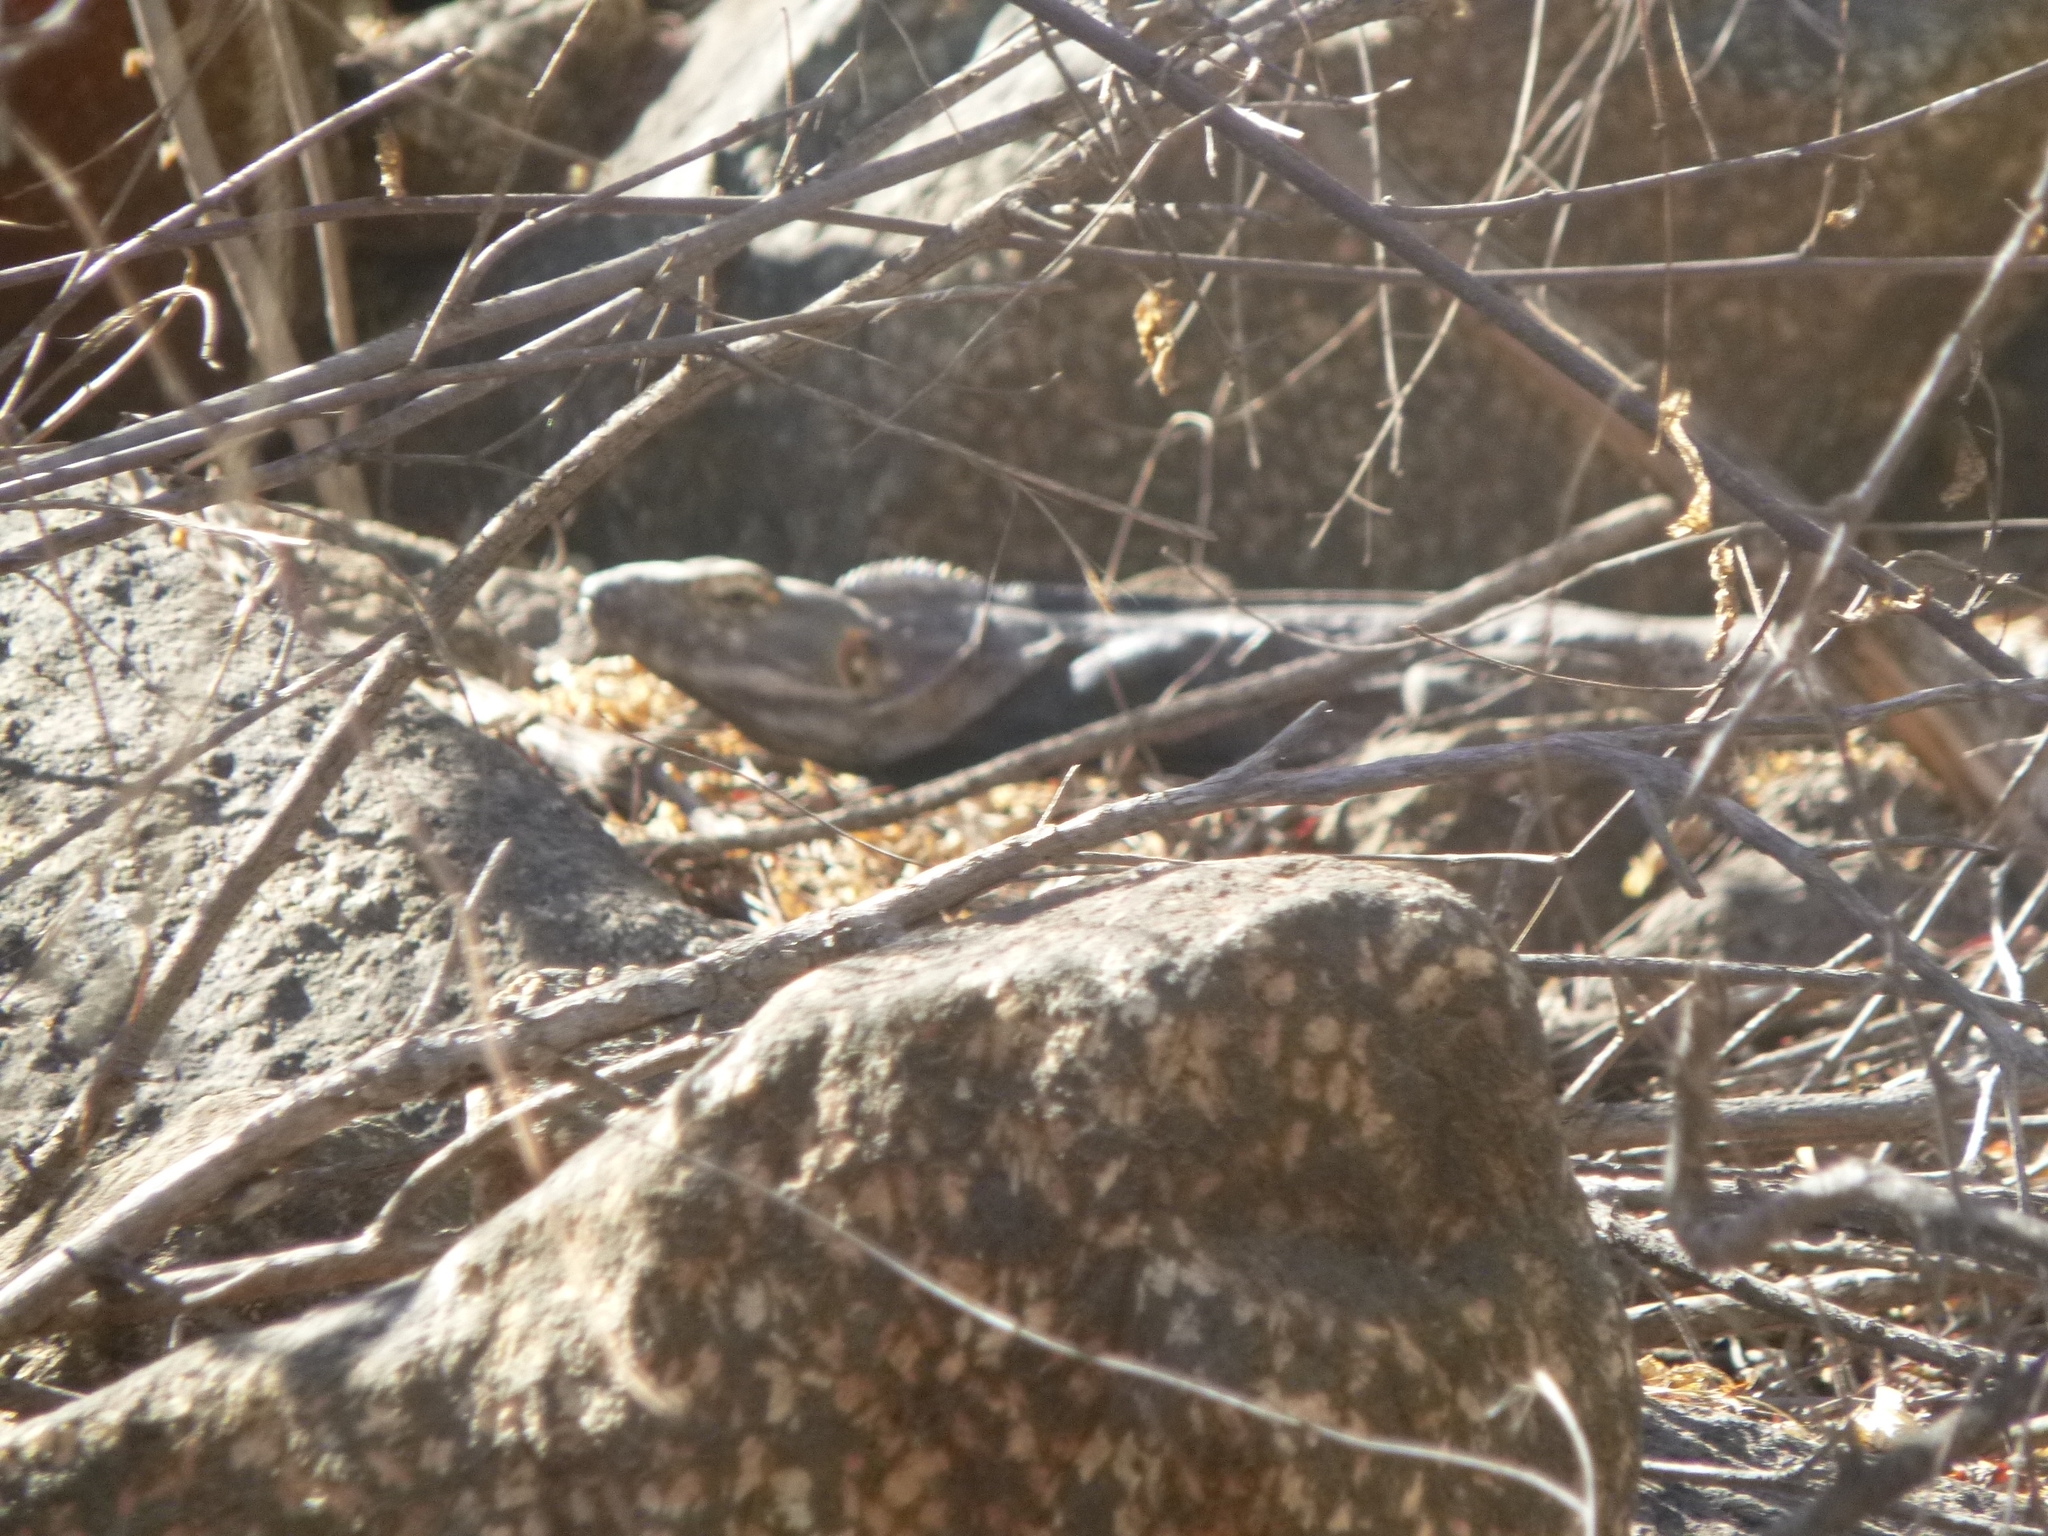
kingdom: Animalia
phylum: Chordata
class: Squamata
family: Iguanidae
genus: Ctenosaura
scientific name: Ctenosaura macrolopha
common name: Cape spinytail iguana
